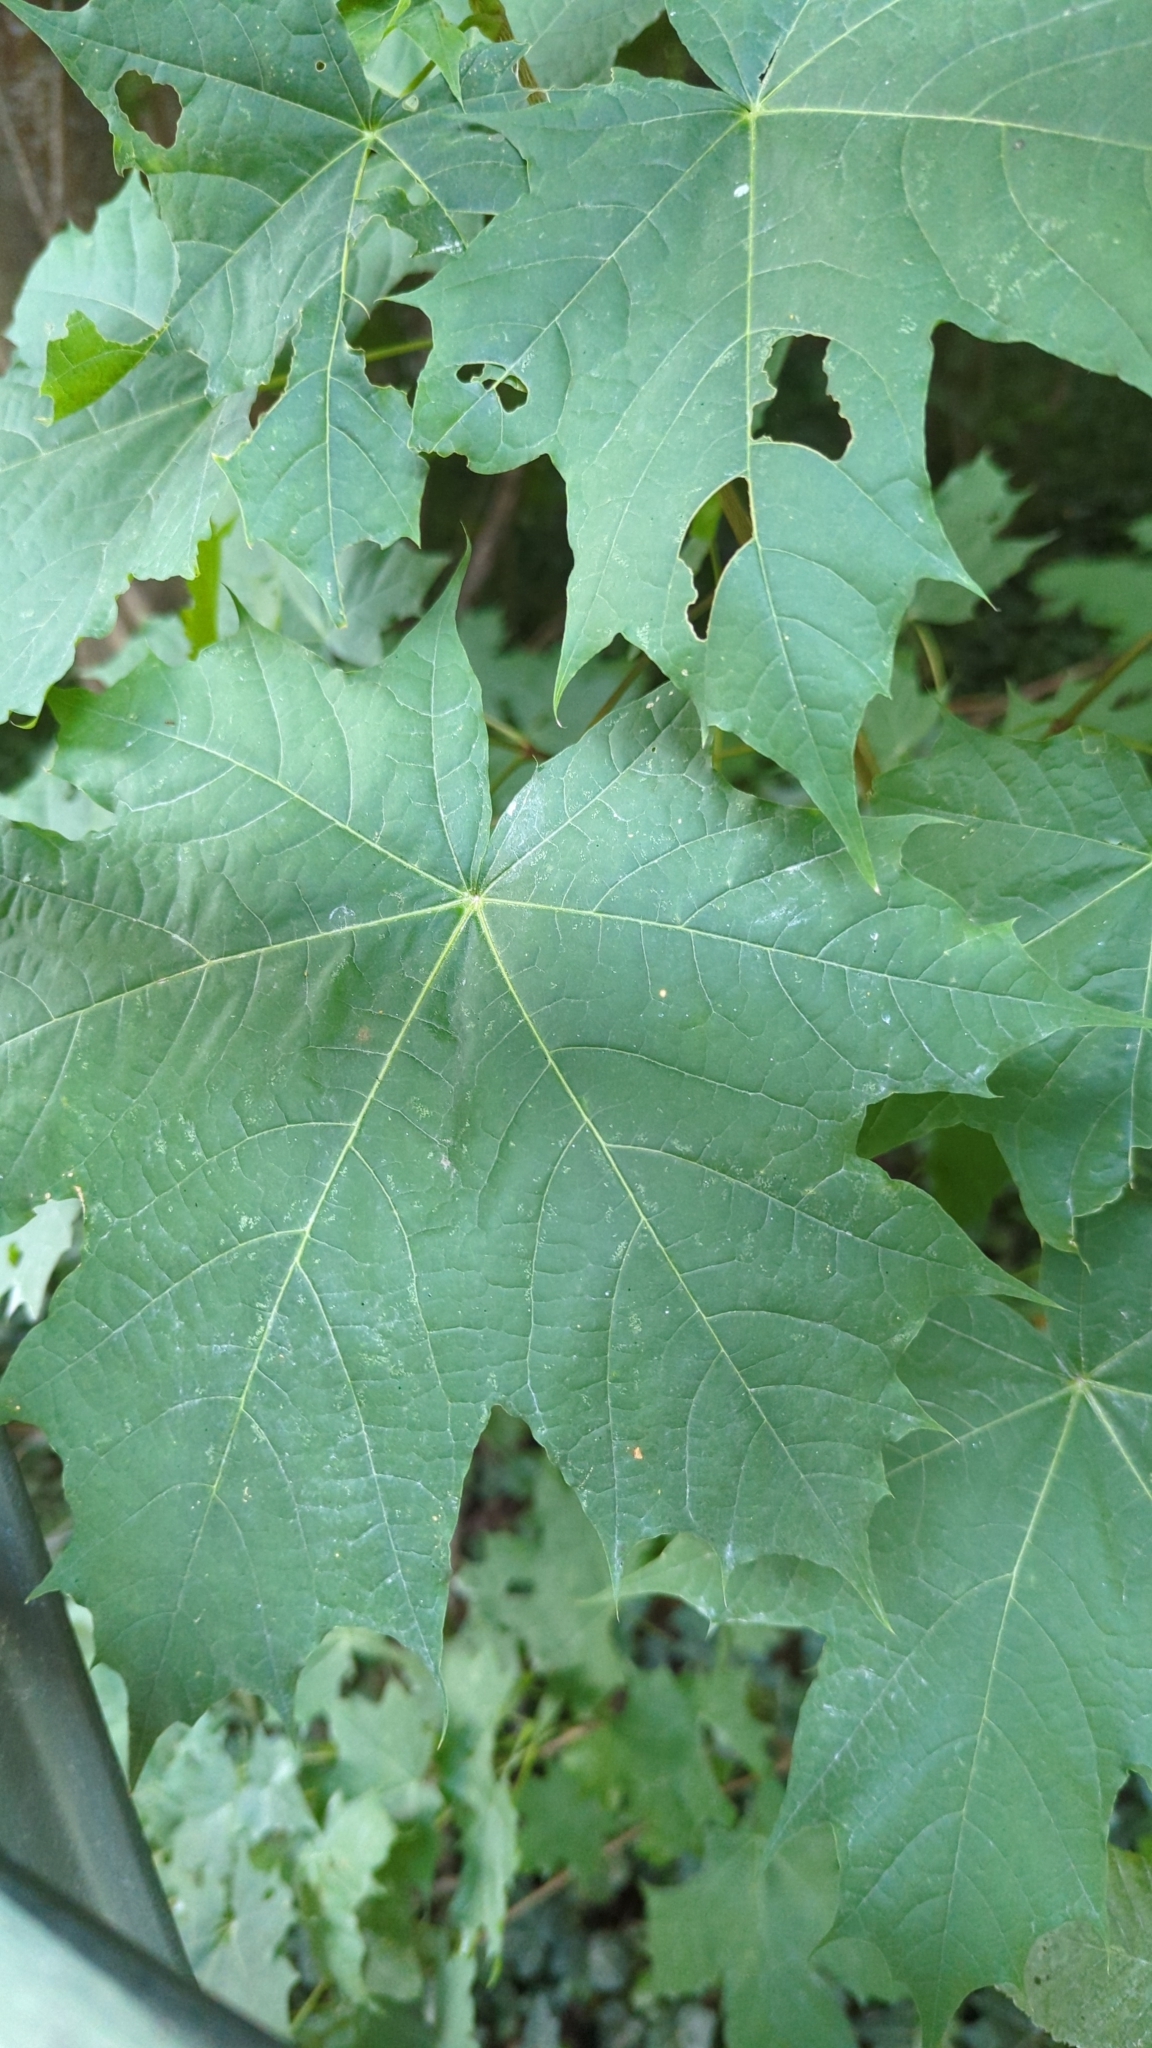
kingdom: Plantae
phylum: Tracheophyta
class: Magnoliopsida
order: Sapindales
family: Sapindaceae
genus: Acer
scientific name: Acer platanoides
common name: Norway maple
